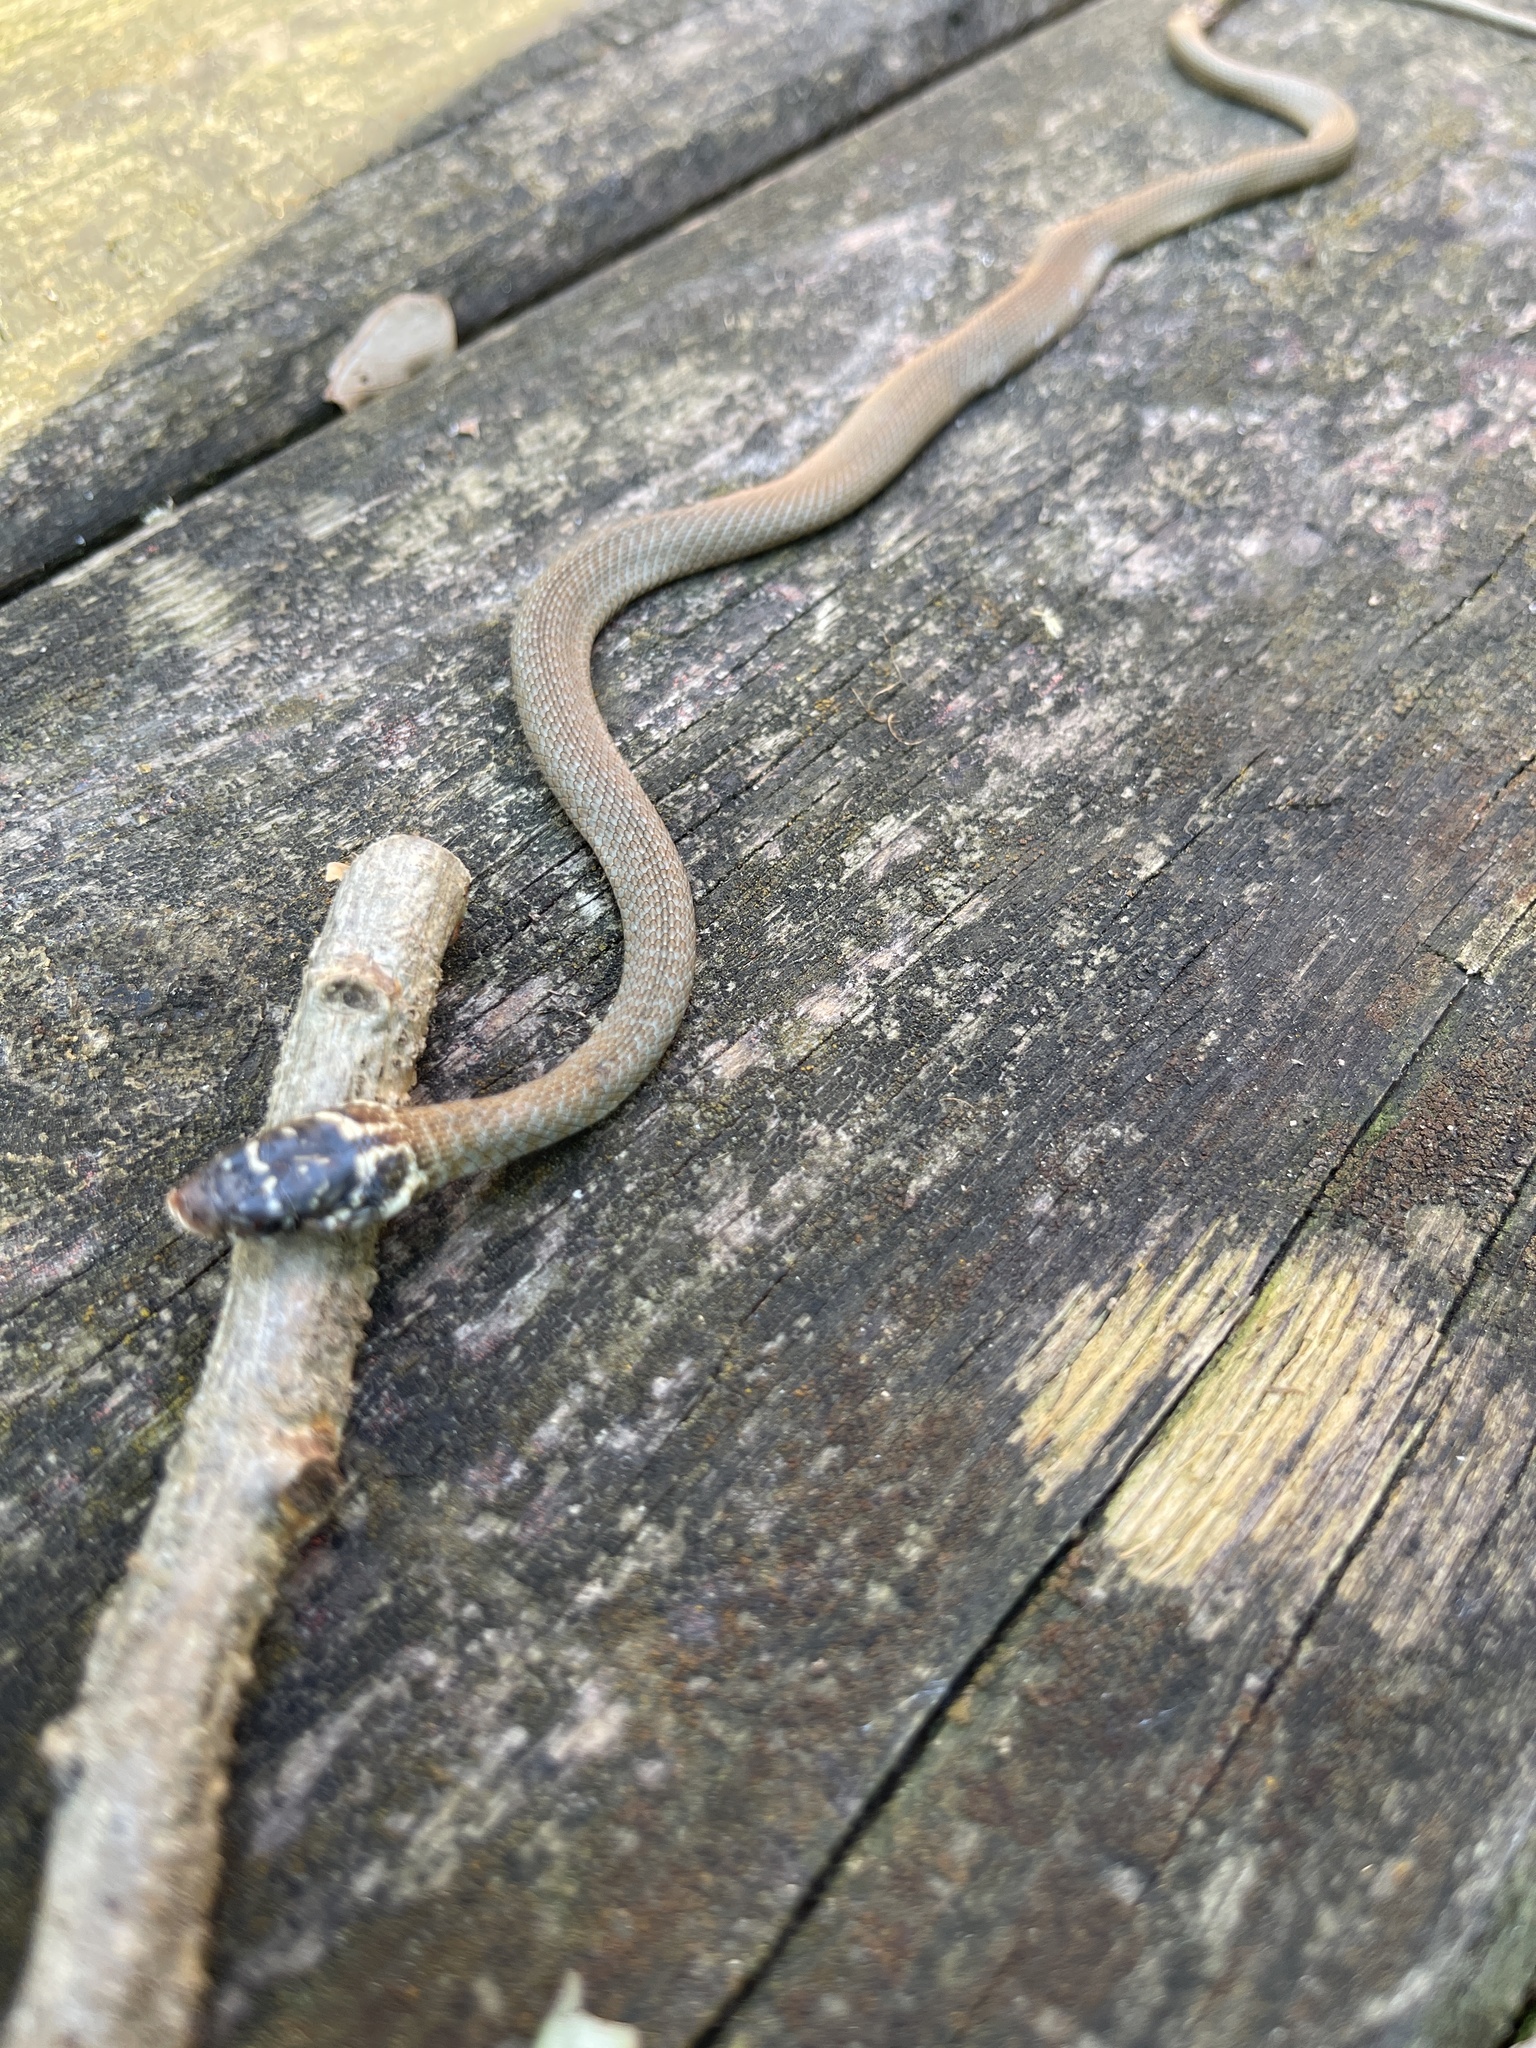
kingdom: Animalia
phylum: Chordata
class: Squamata
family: Colubridae
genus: Hierophis
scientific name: Hierophis viridiflavus
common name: Green whip snake
